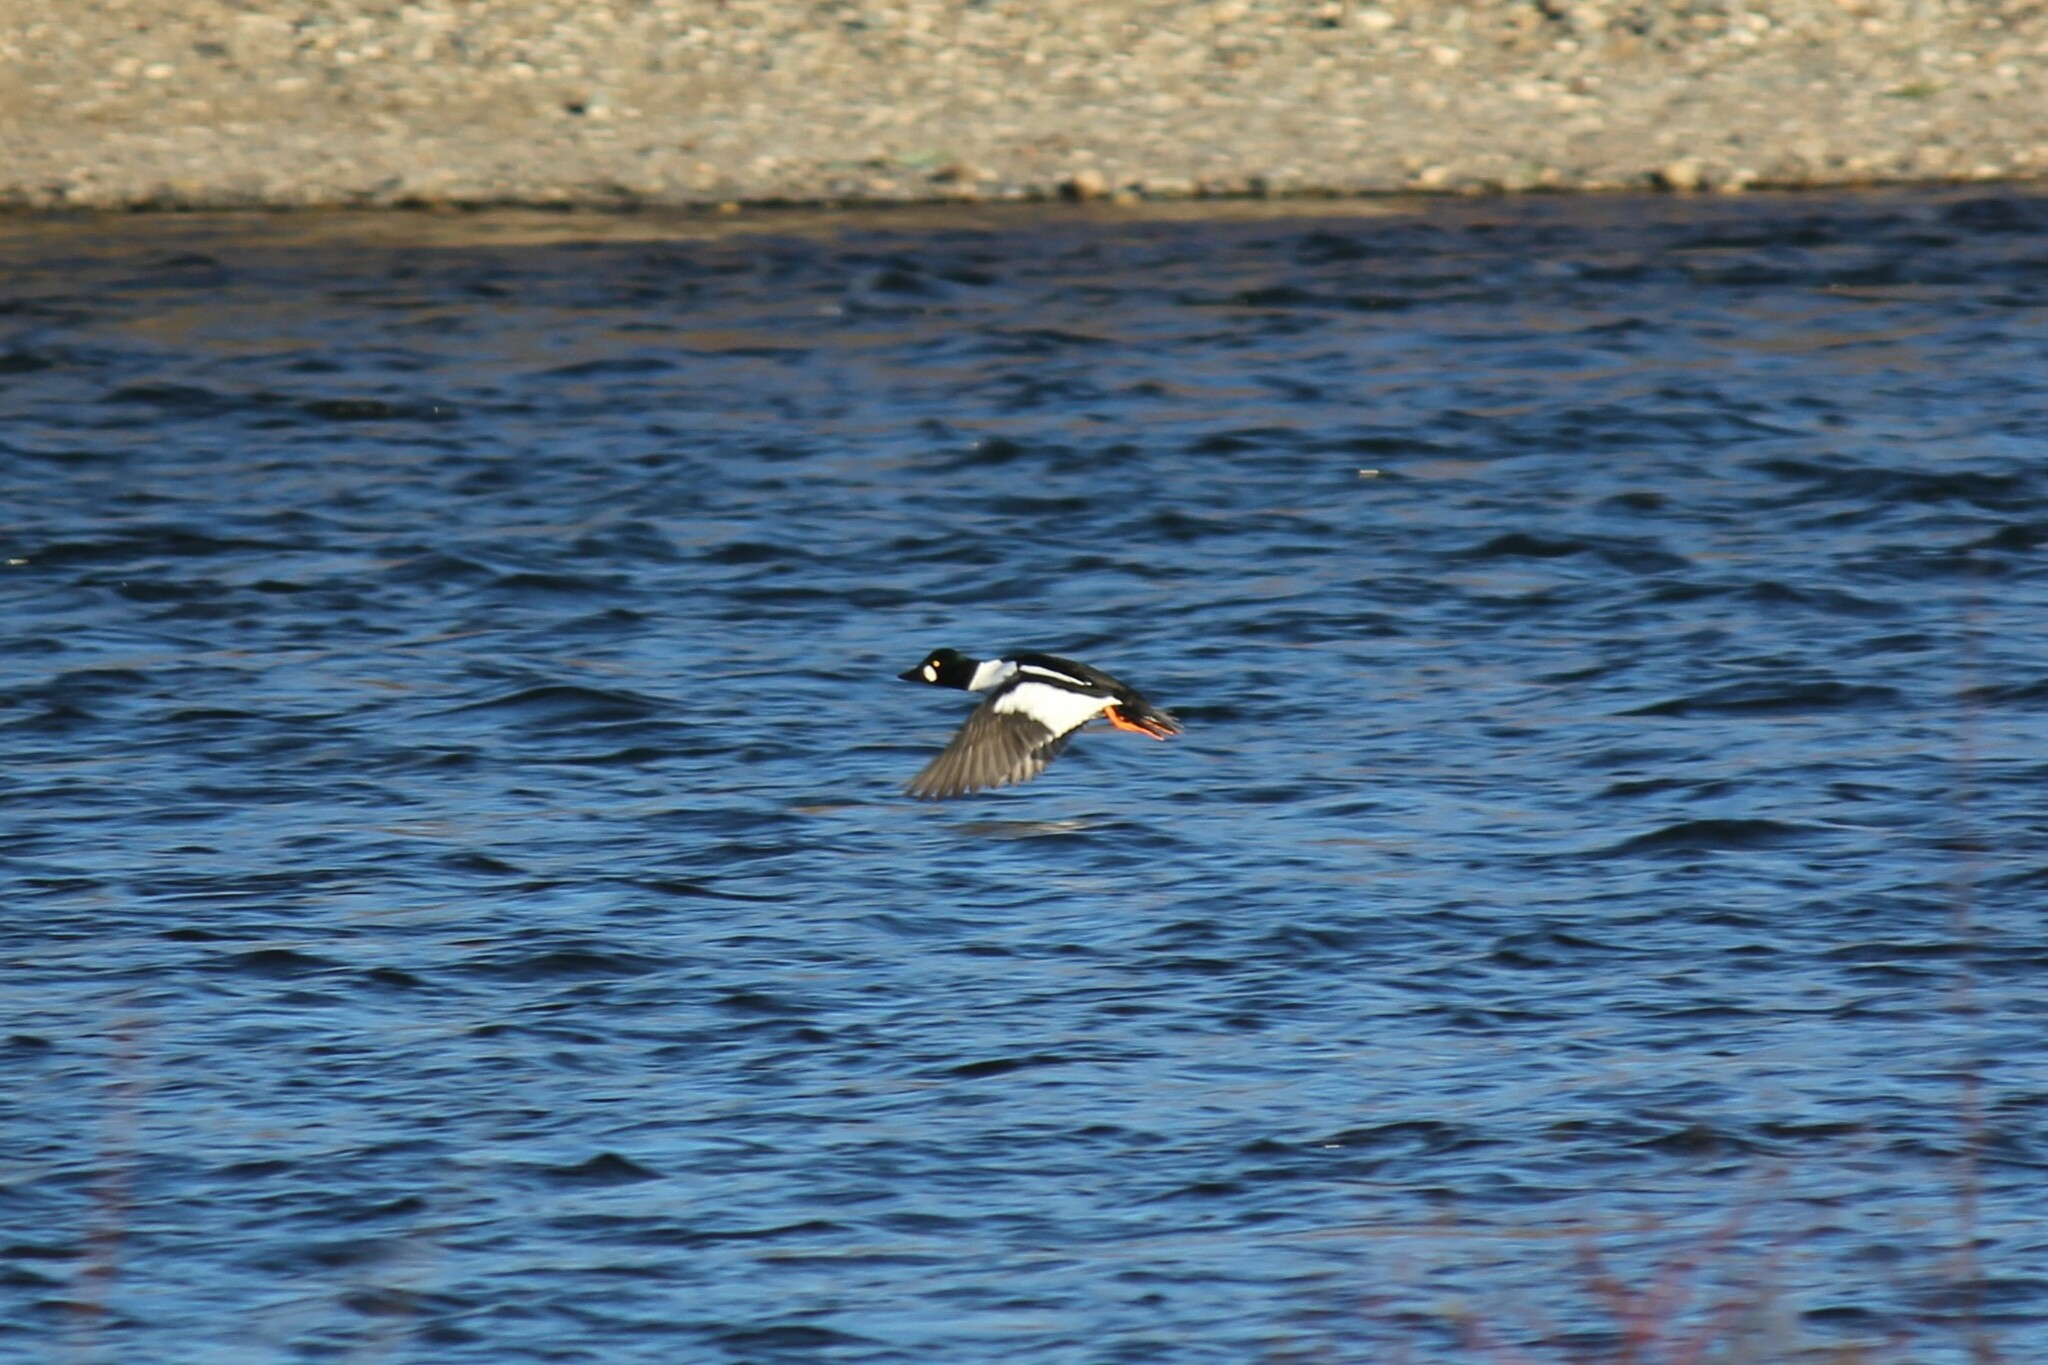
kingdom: Animalia
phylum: Chordata
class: Aves
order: Anseriformes
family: Anatidae
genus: Bucephala
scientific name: Bucephala clangula
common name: Common goldeneye
